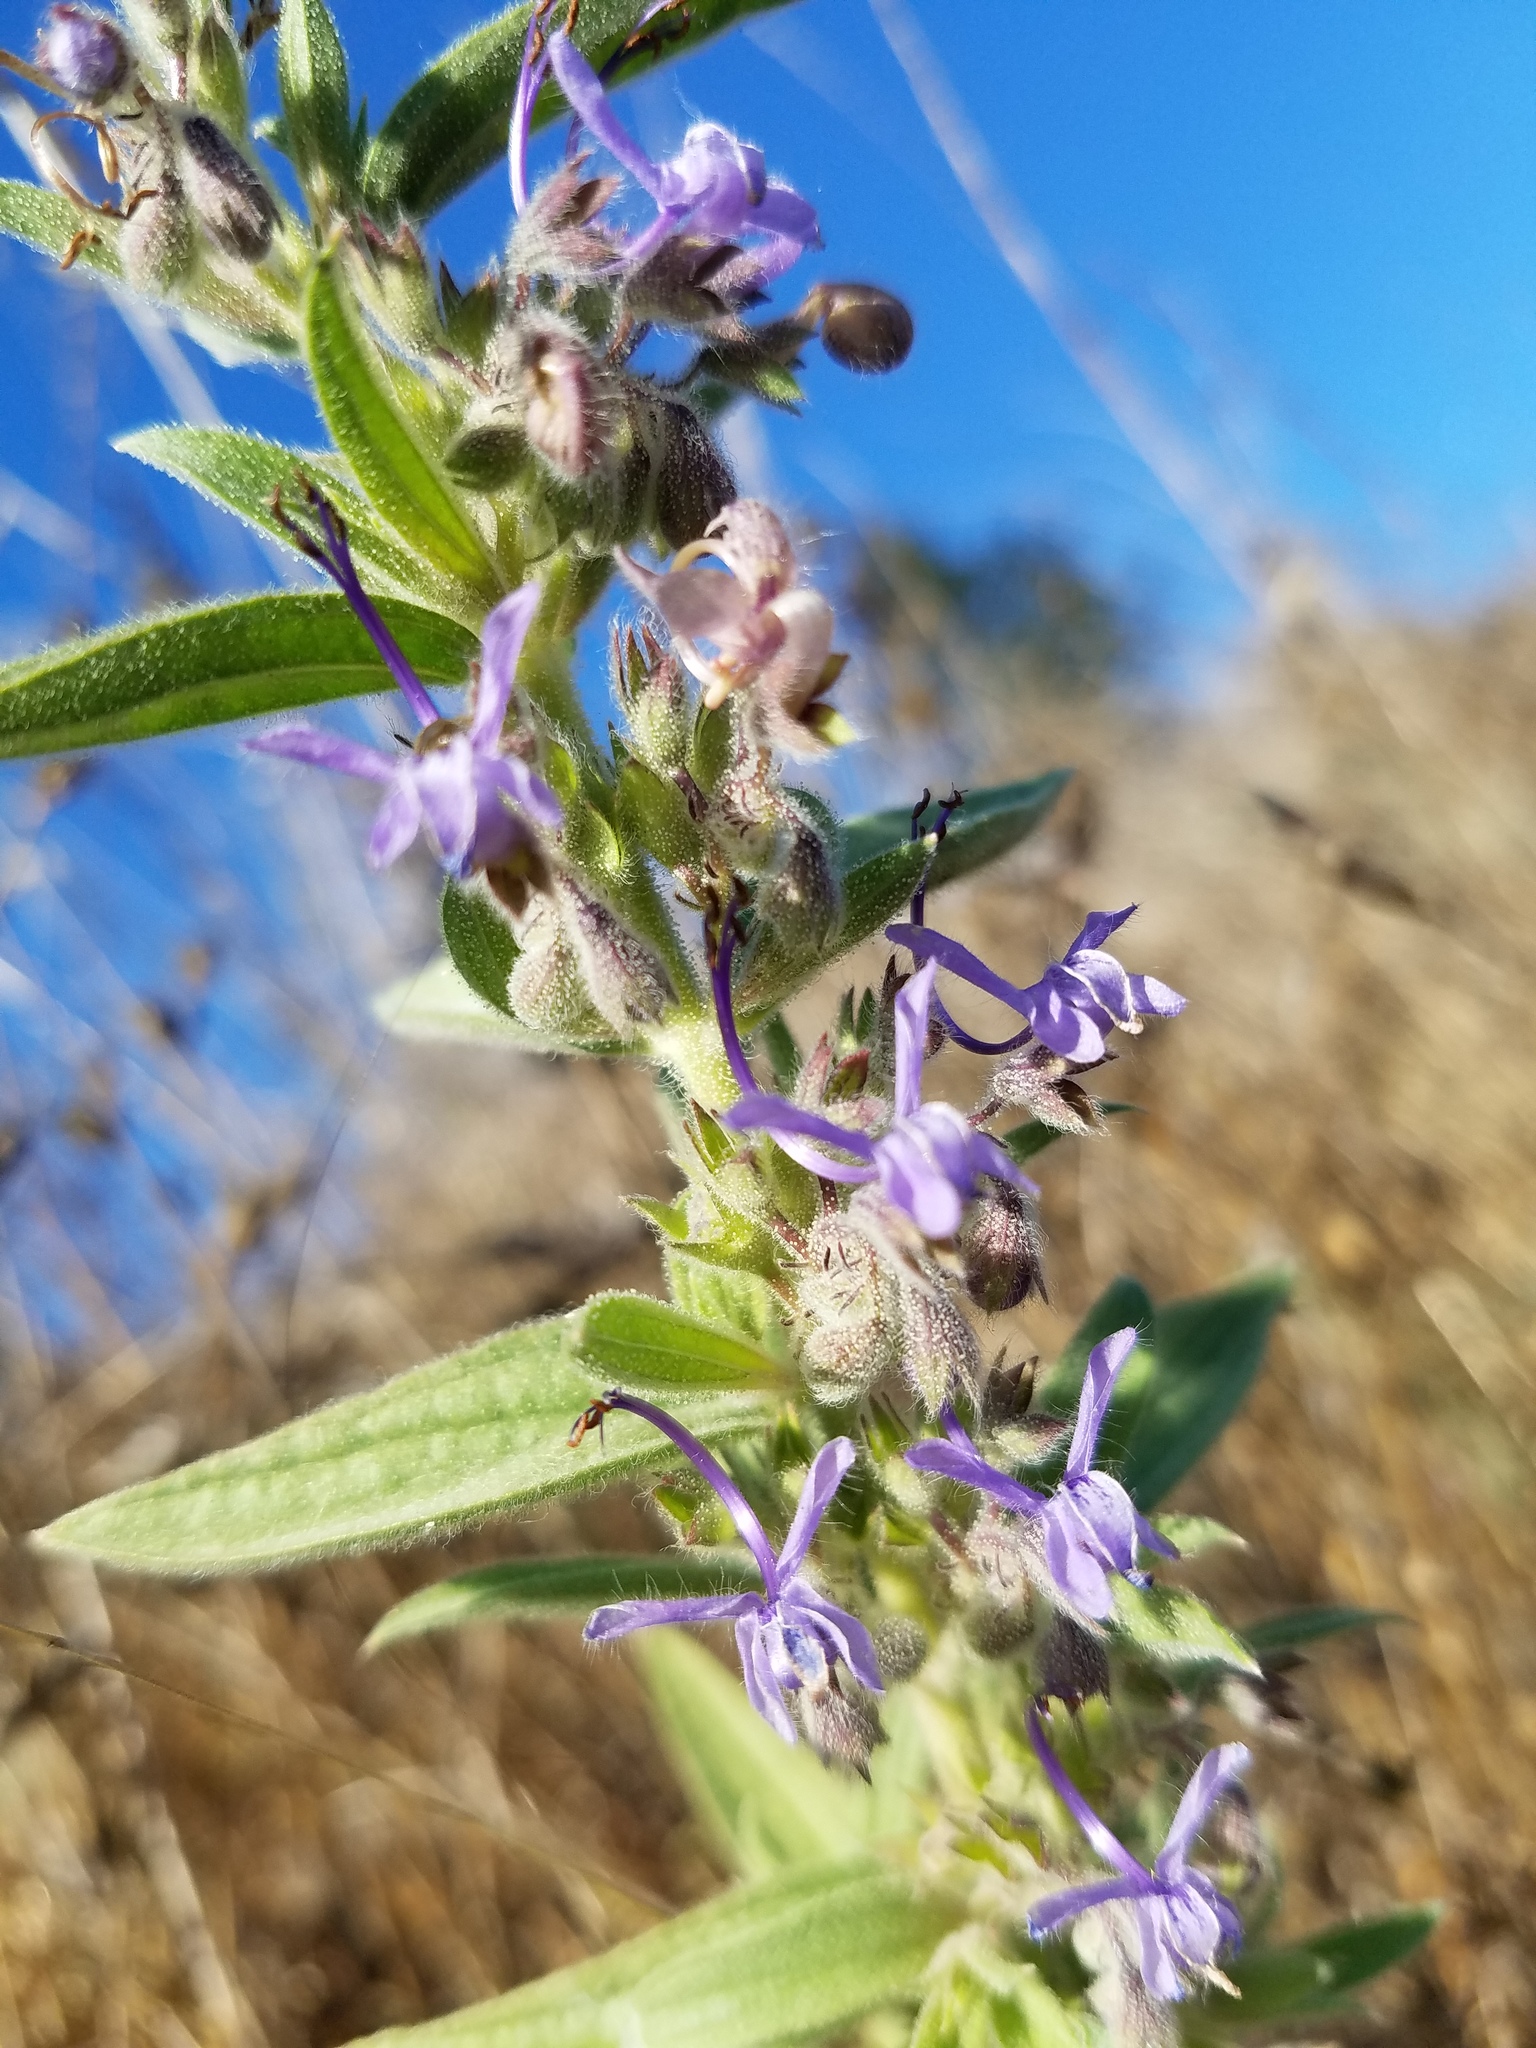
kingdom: Plantae
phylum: Tracheophyta
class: Magnoliopsida
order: Lamiales
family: Lamiaceae
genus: Trichostema
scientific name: Trichostema lanceolatum
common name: Vinegar-weed
